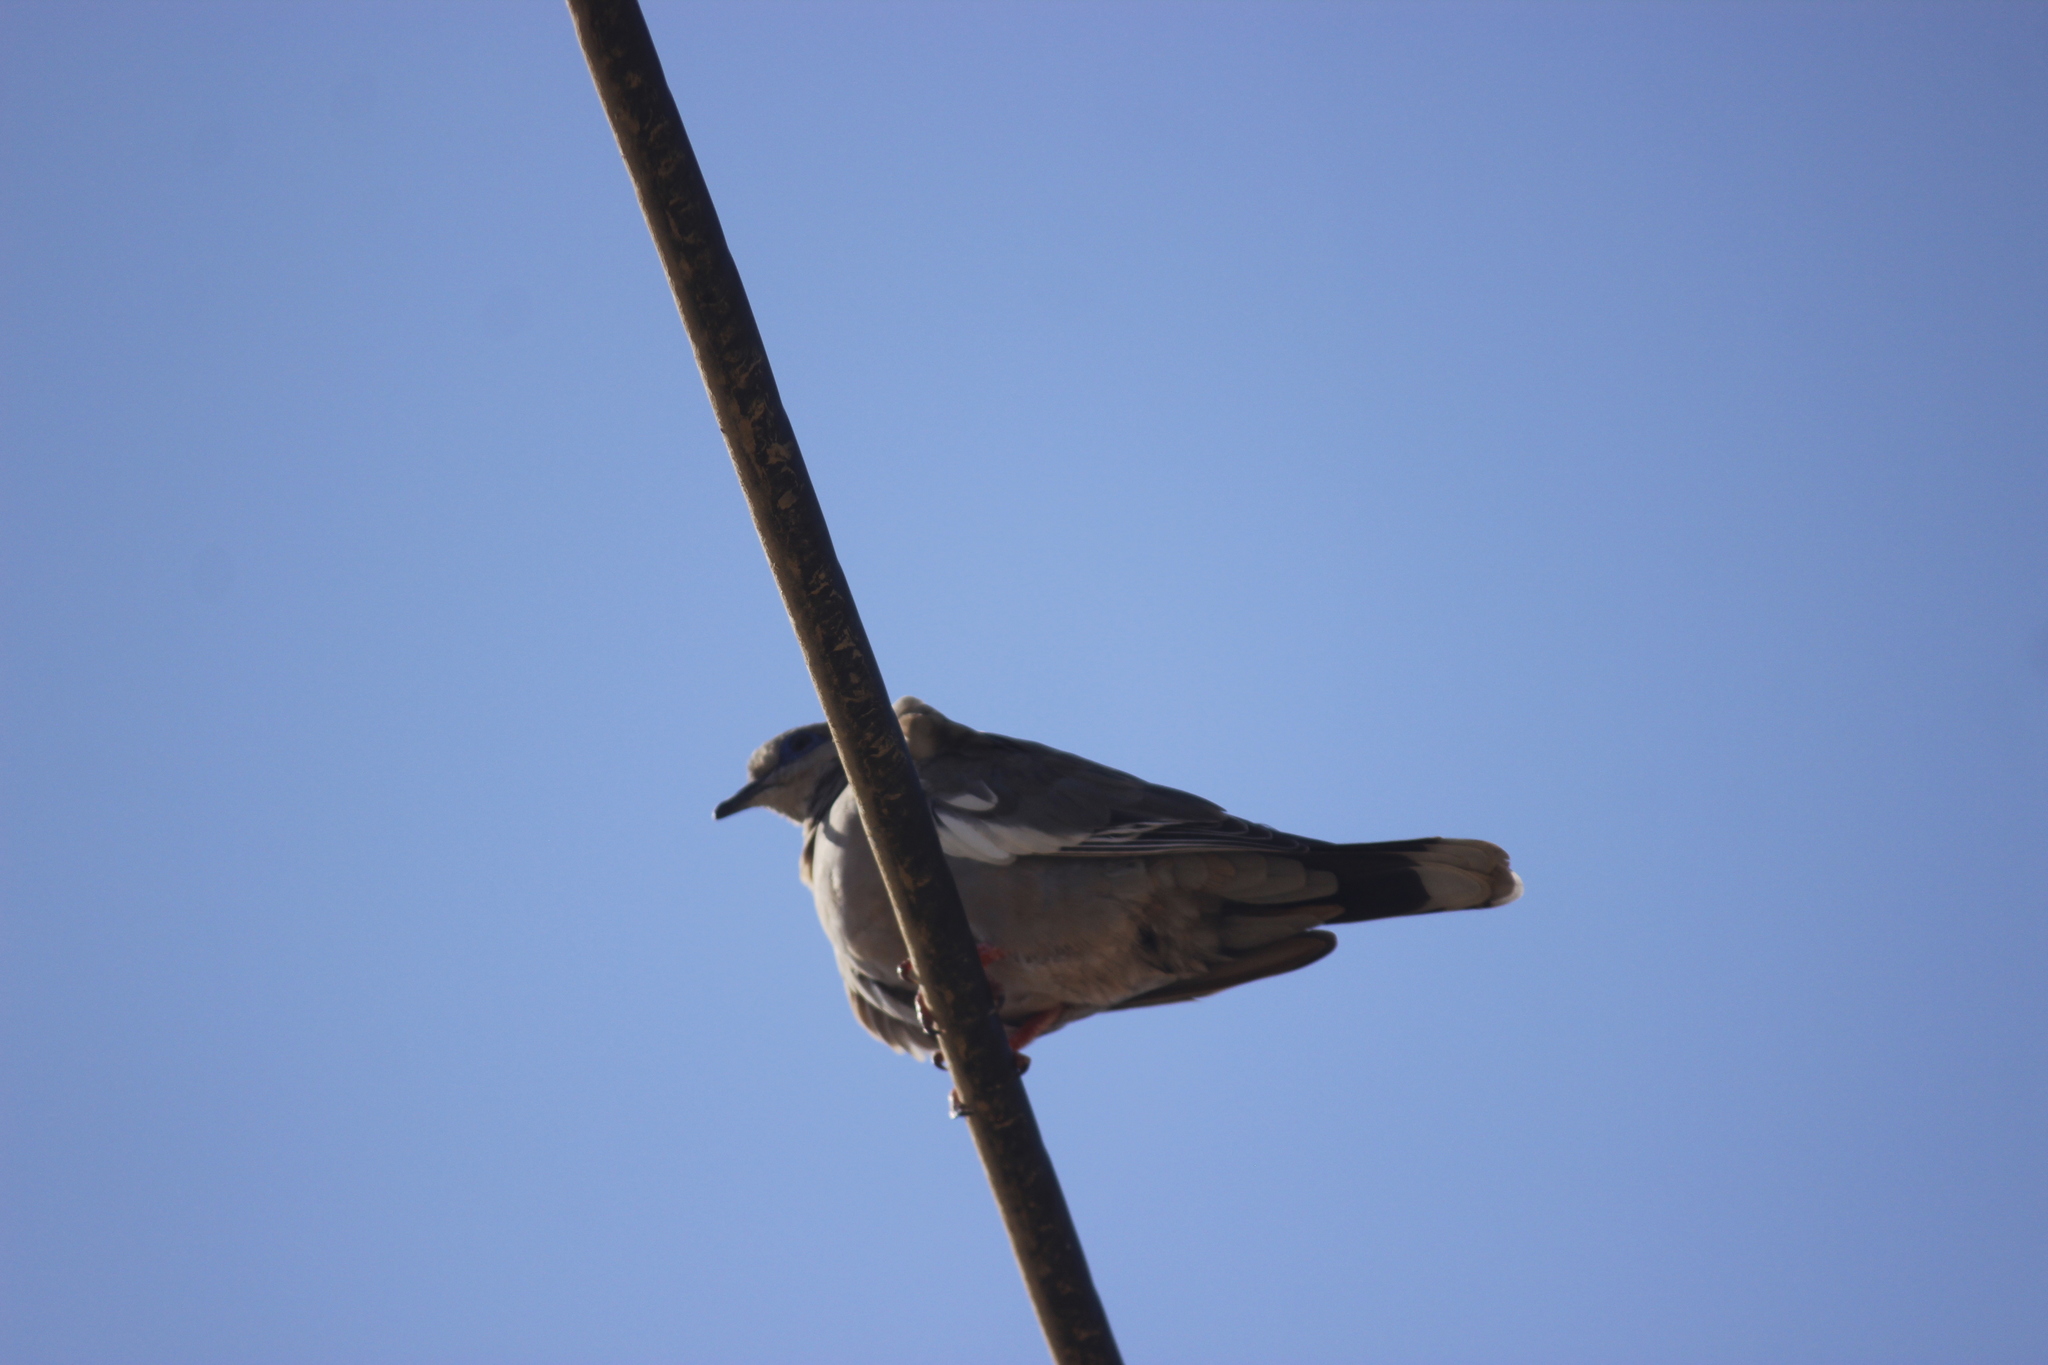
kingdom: Animalia
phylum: Chordata
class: Aves
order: Columbiformes
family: Columbidae
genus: Zenaida
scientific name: Zenaida meloda
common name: West peruvian dove
